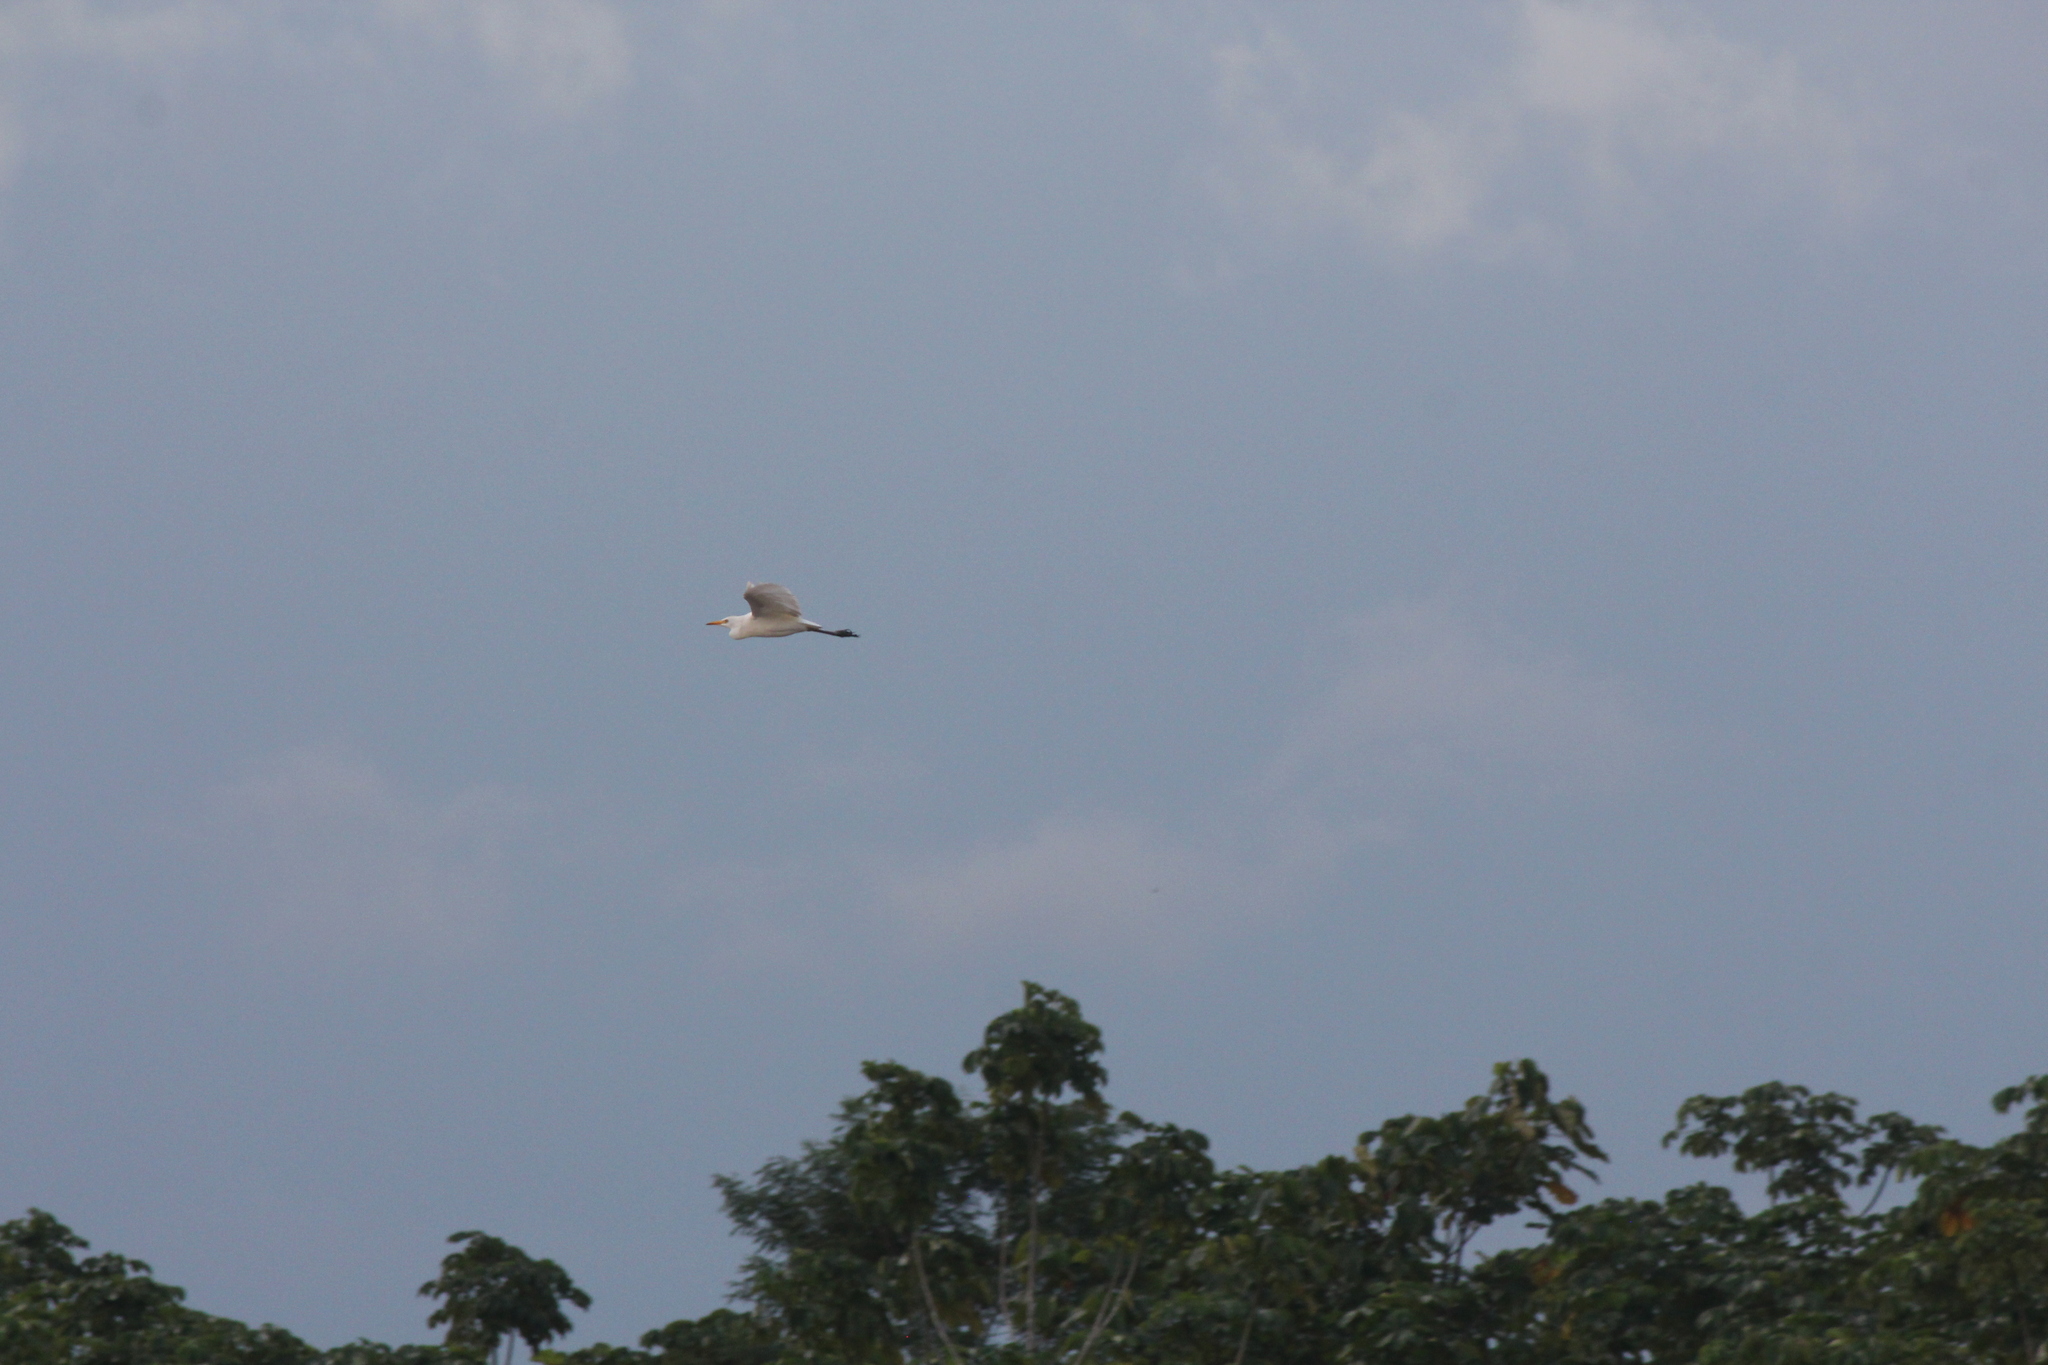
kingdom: Animalia
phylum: Chordata
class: Aves
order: Pelecaniformes
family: Ardeidae
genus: Bubulcus
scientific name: Bubulcus ibis
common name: Cattle egret
